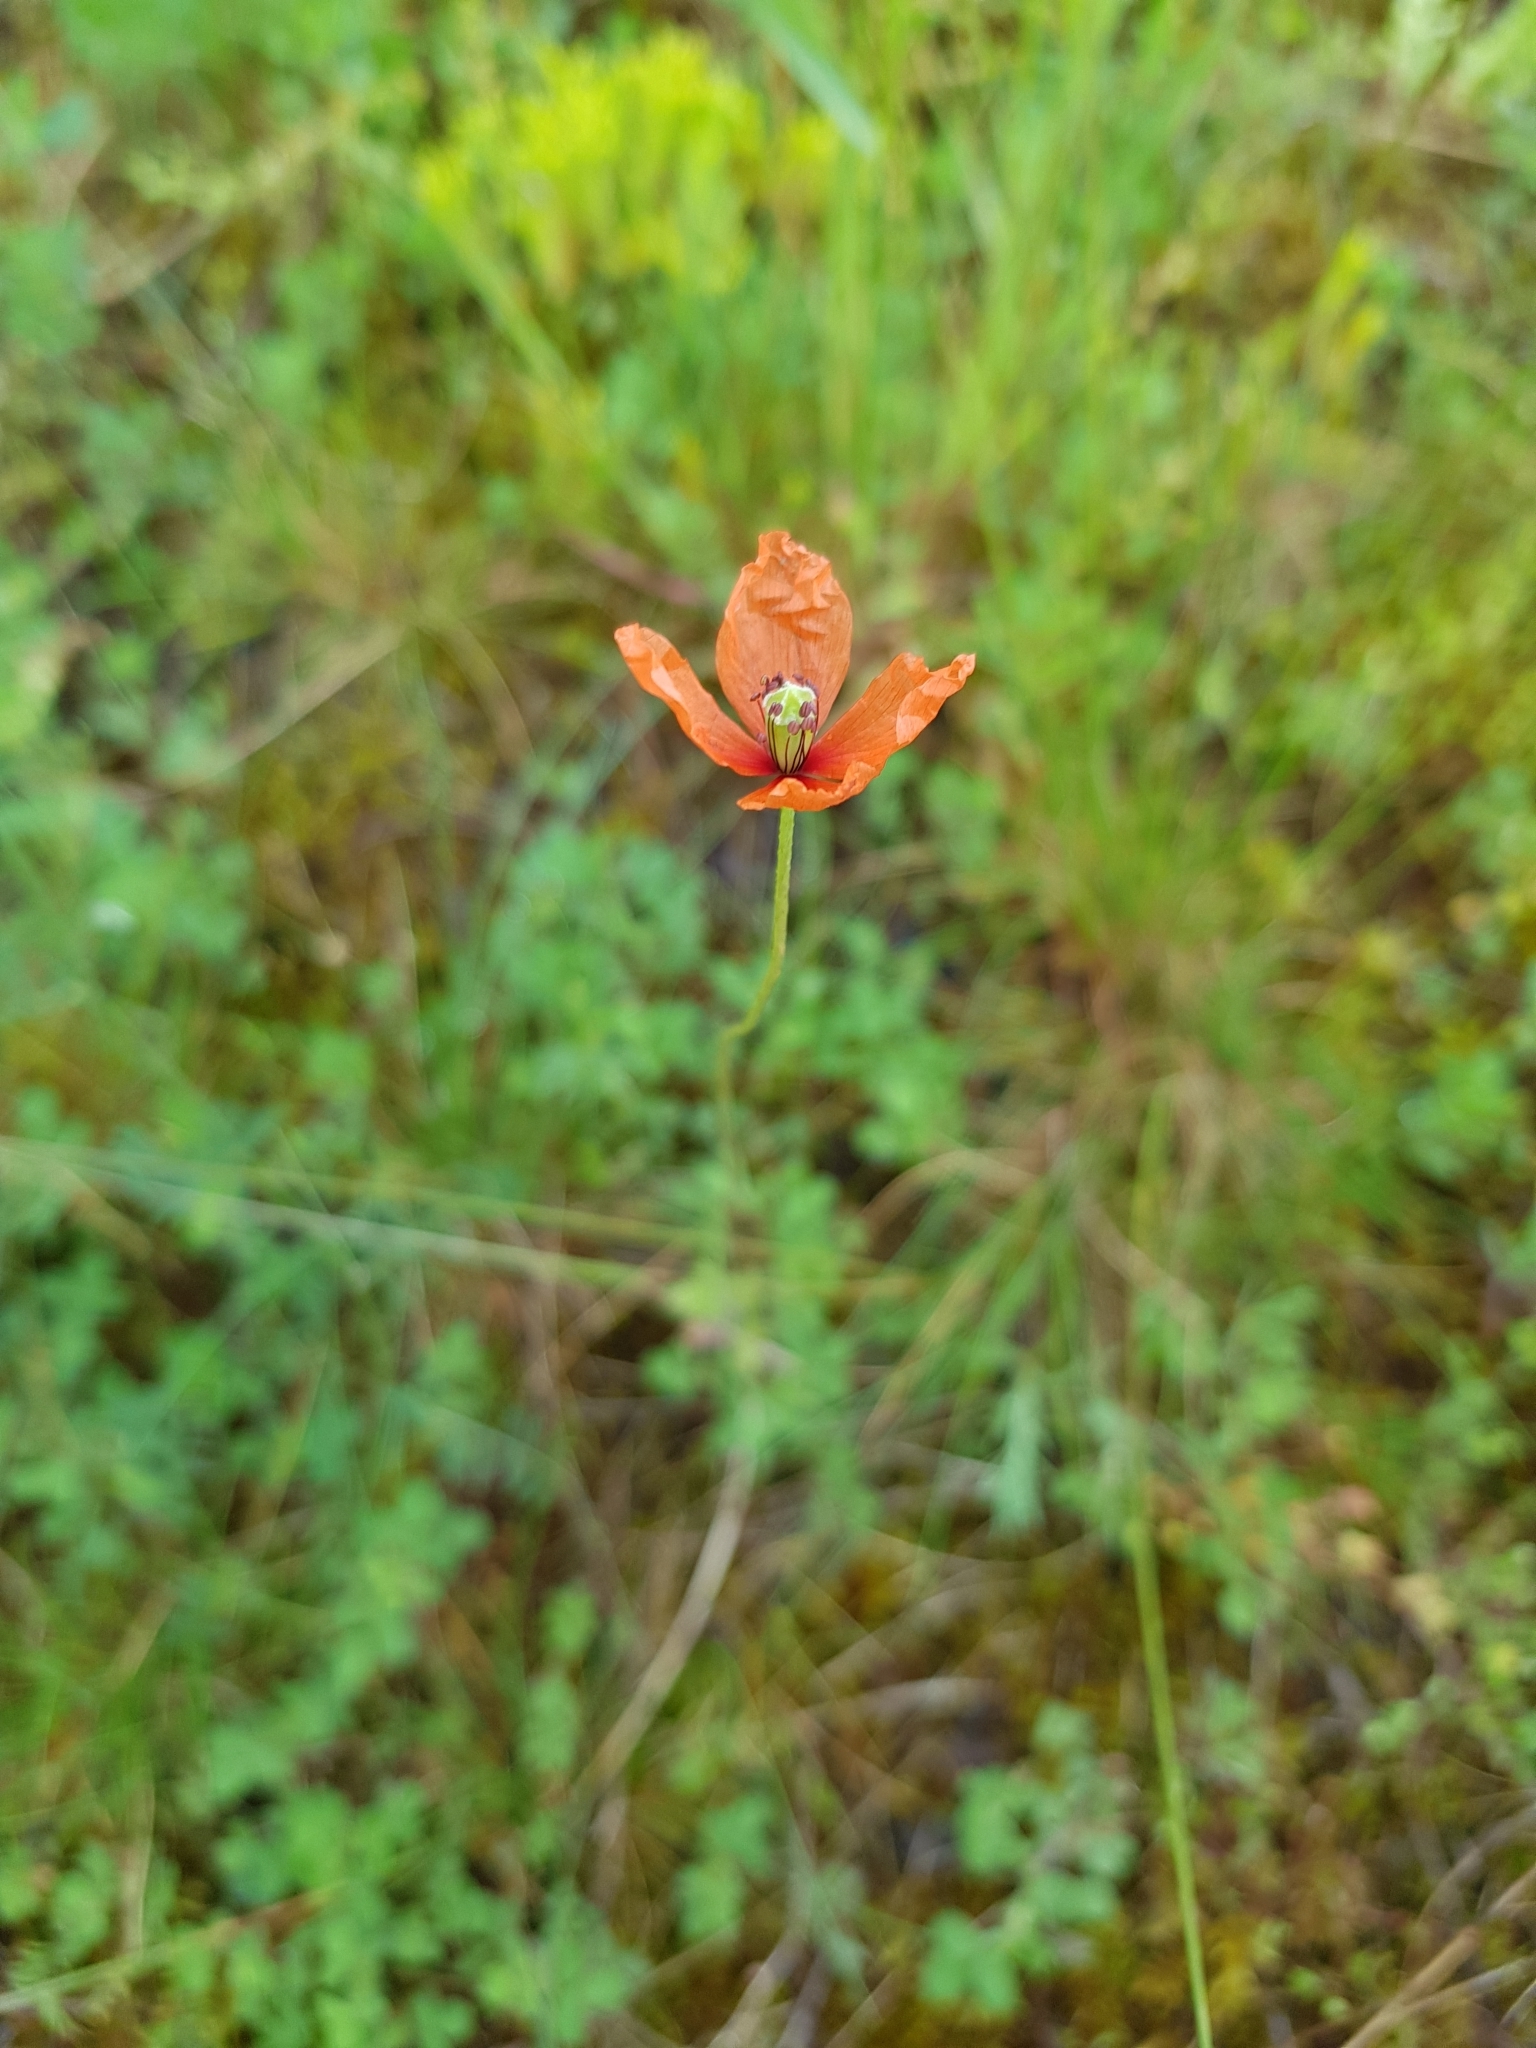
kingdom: Plantae
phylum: Tracheophyta
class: Magnoliopsida
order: Ranunculales
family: Papaveraceae
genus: Papaver
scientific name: Papaver dubium
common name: Long-headed poppy
